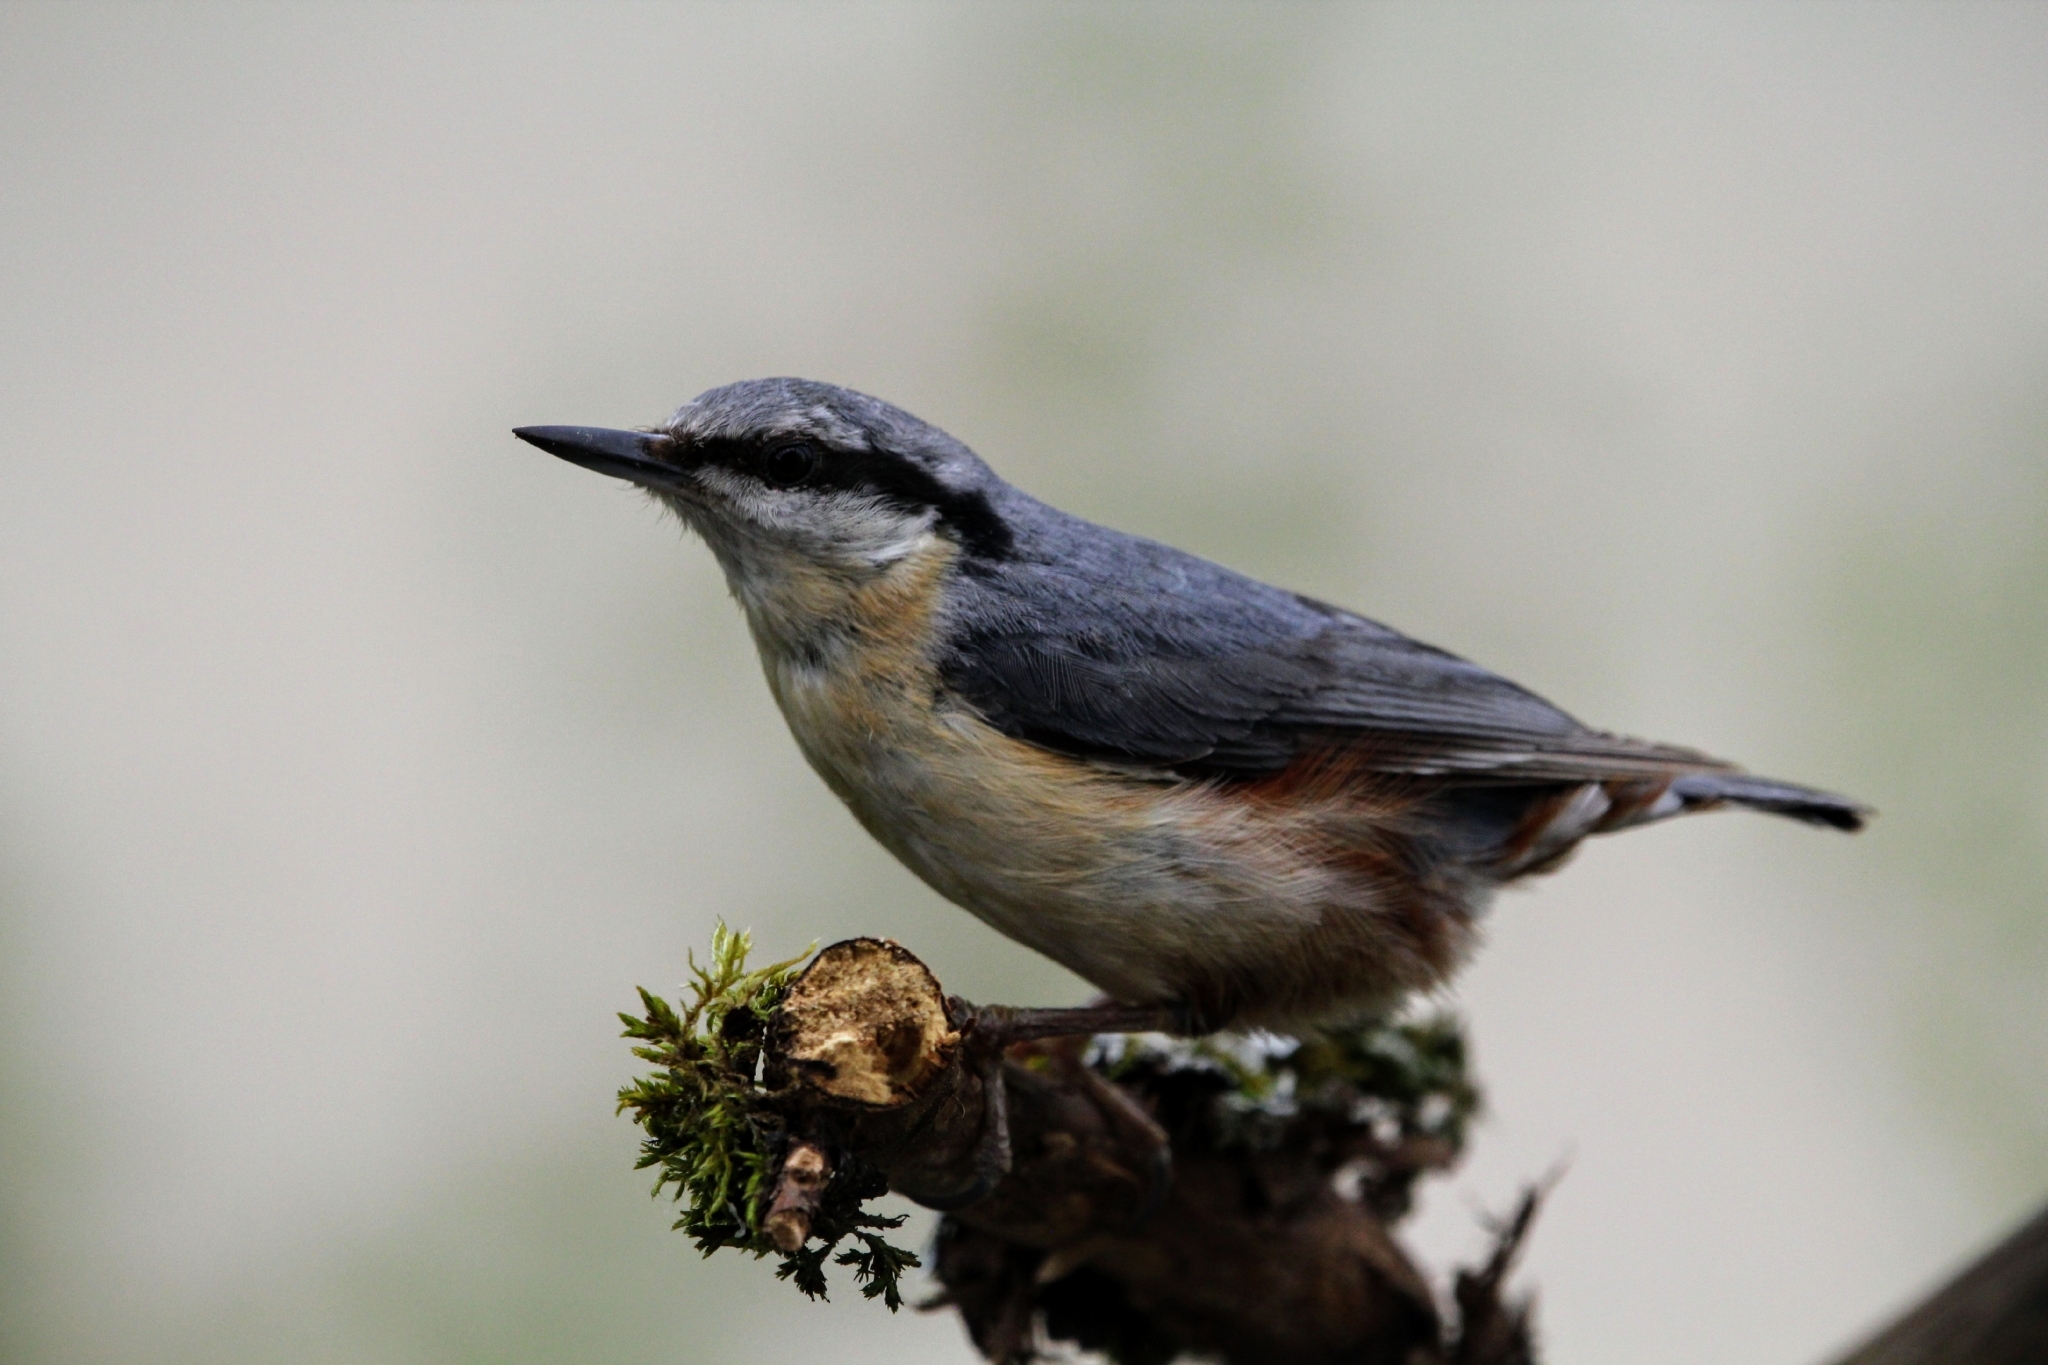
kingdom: Animalia
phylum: Chordata
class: Aves
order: Passeriformes
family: Sittidae
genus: Sitta
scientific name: Sitta europaea
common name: Eurasian nuthatch
